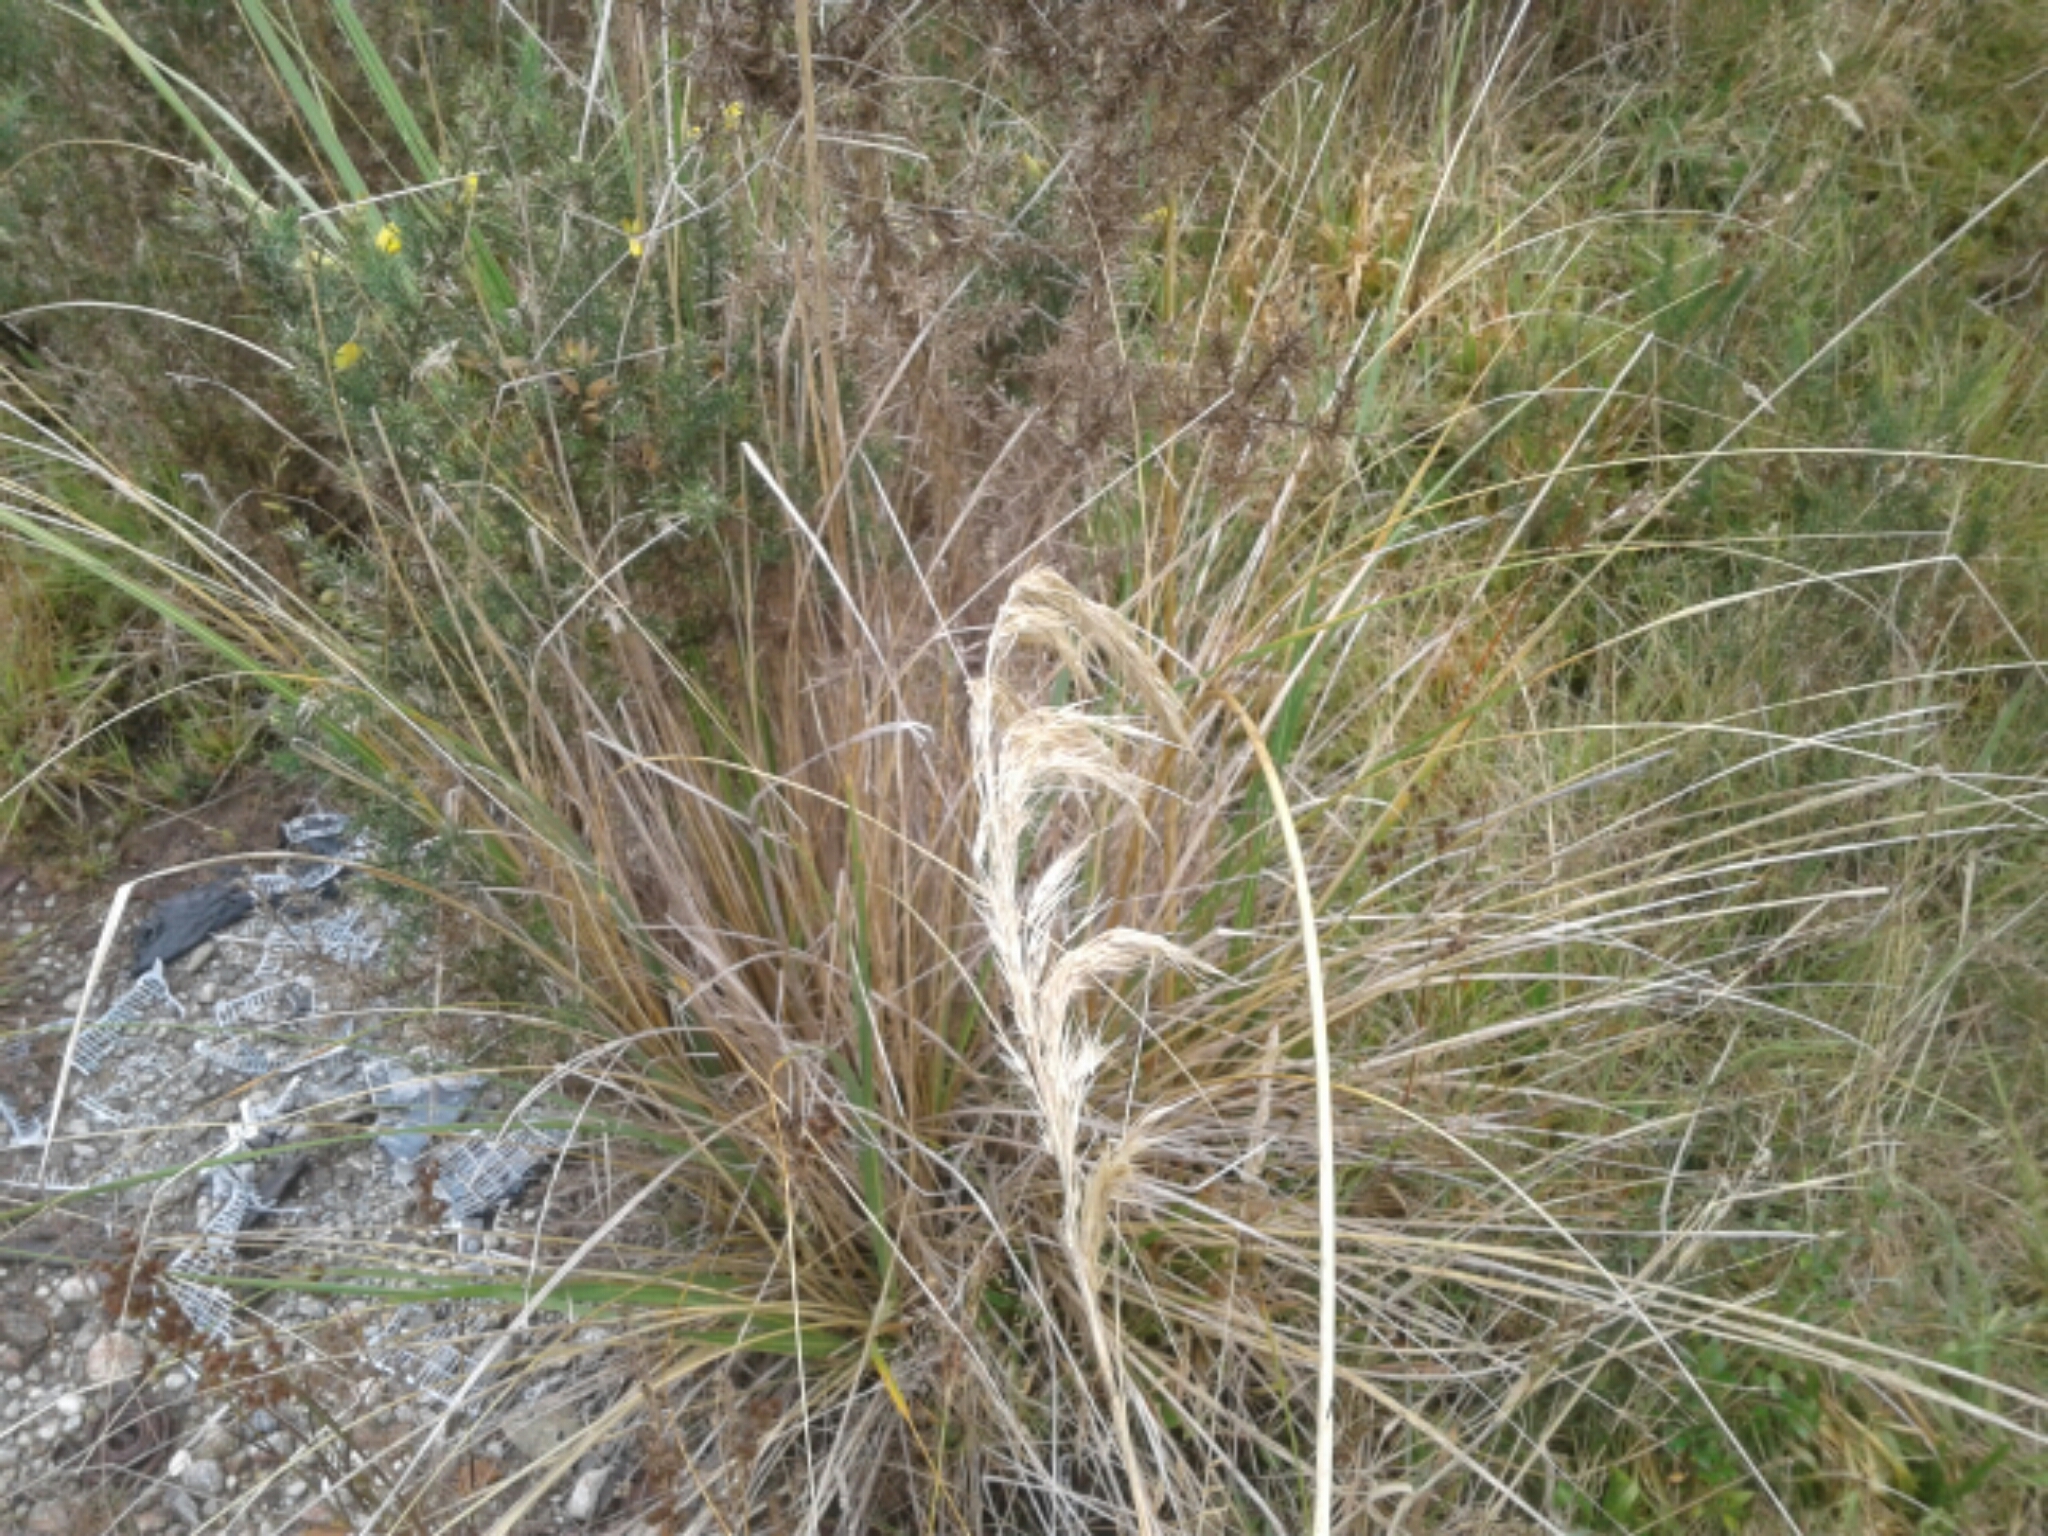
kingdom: Plantae
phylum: Tracheophyta
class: Liliopsida
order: Poales
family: Poaceae
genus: Austroderia
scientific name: Austroderia richardii
